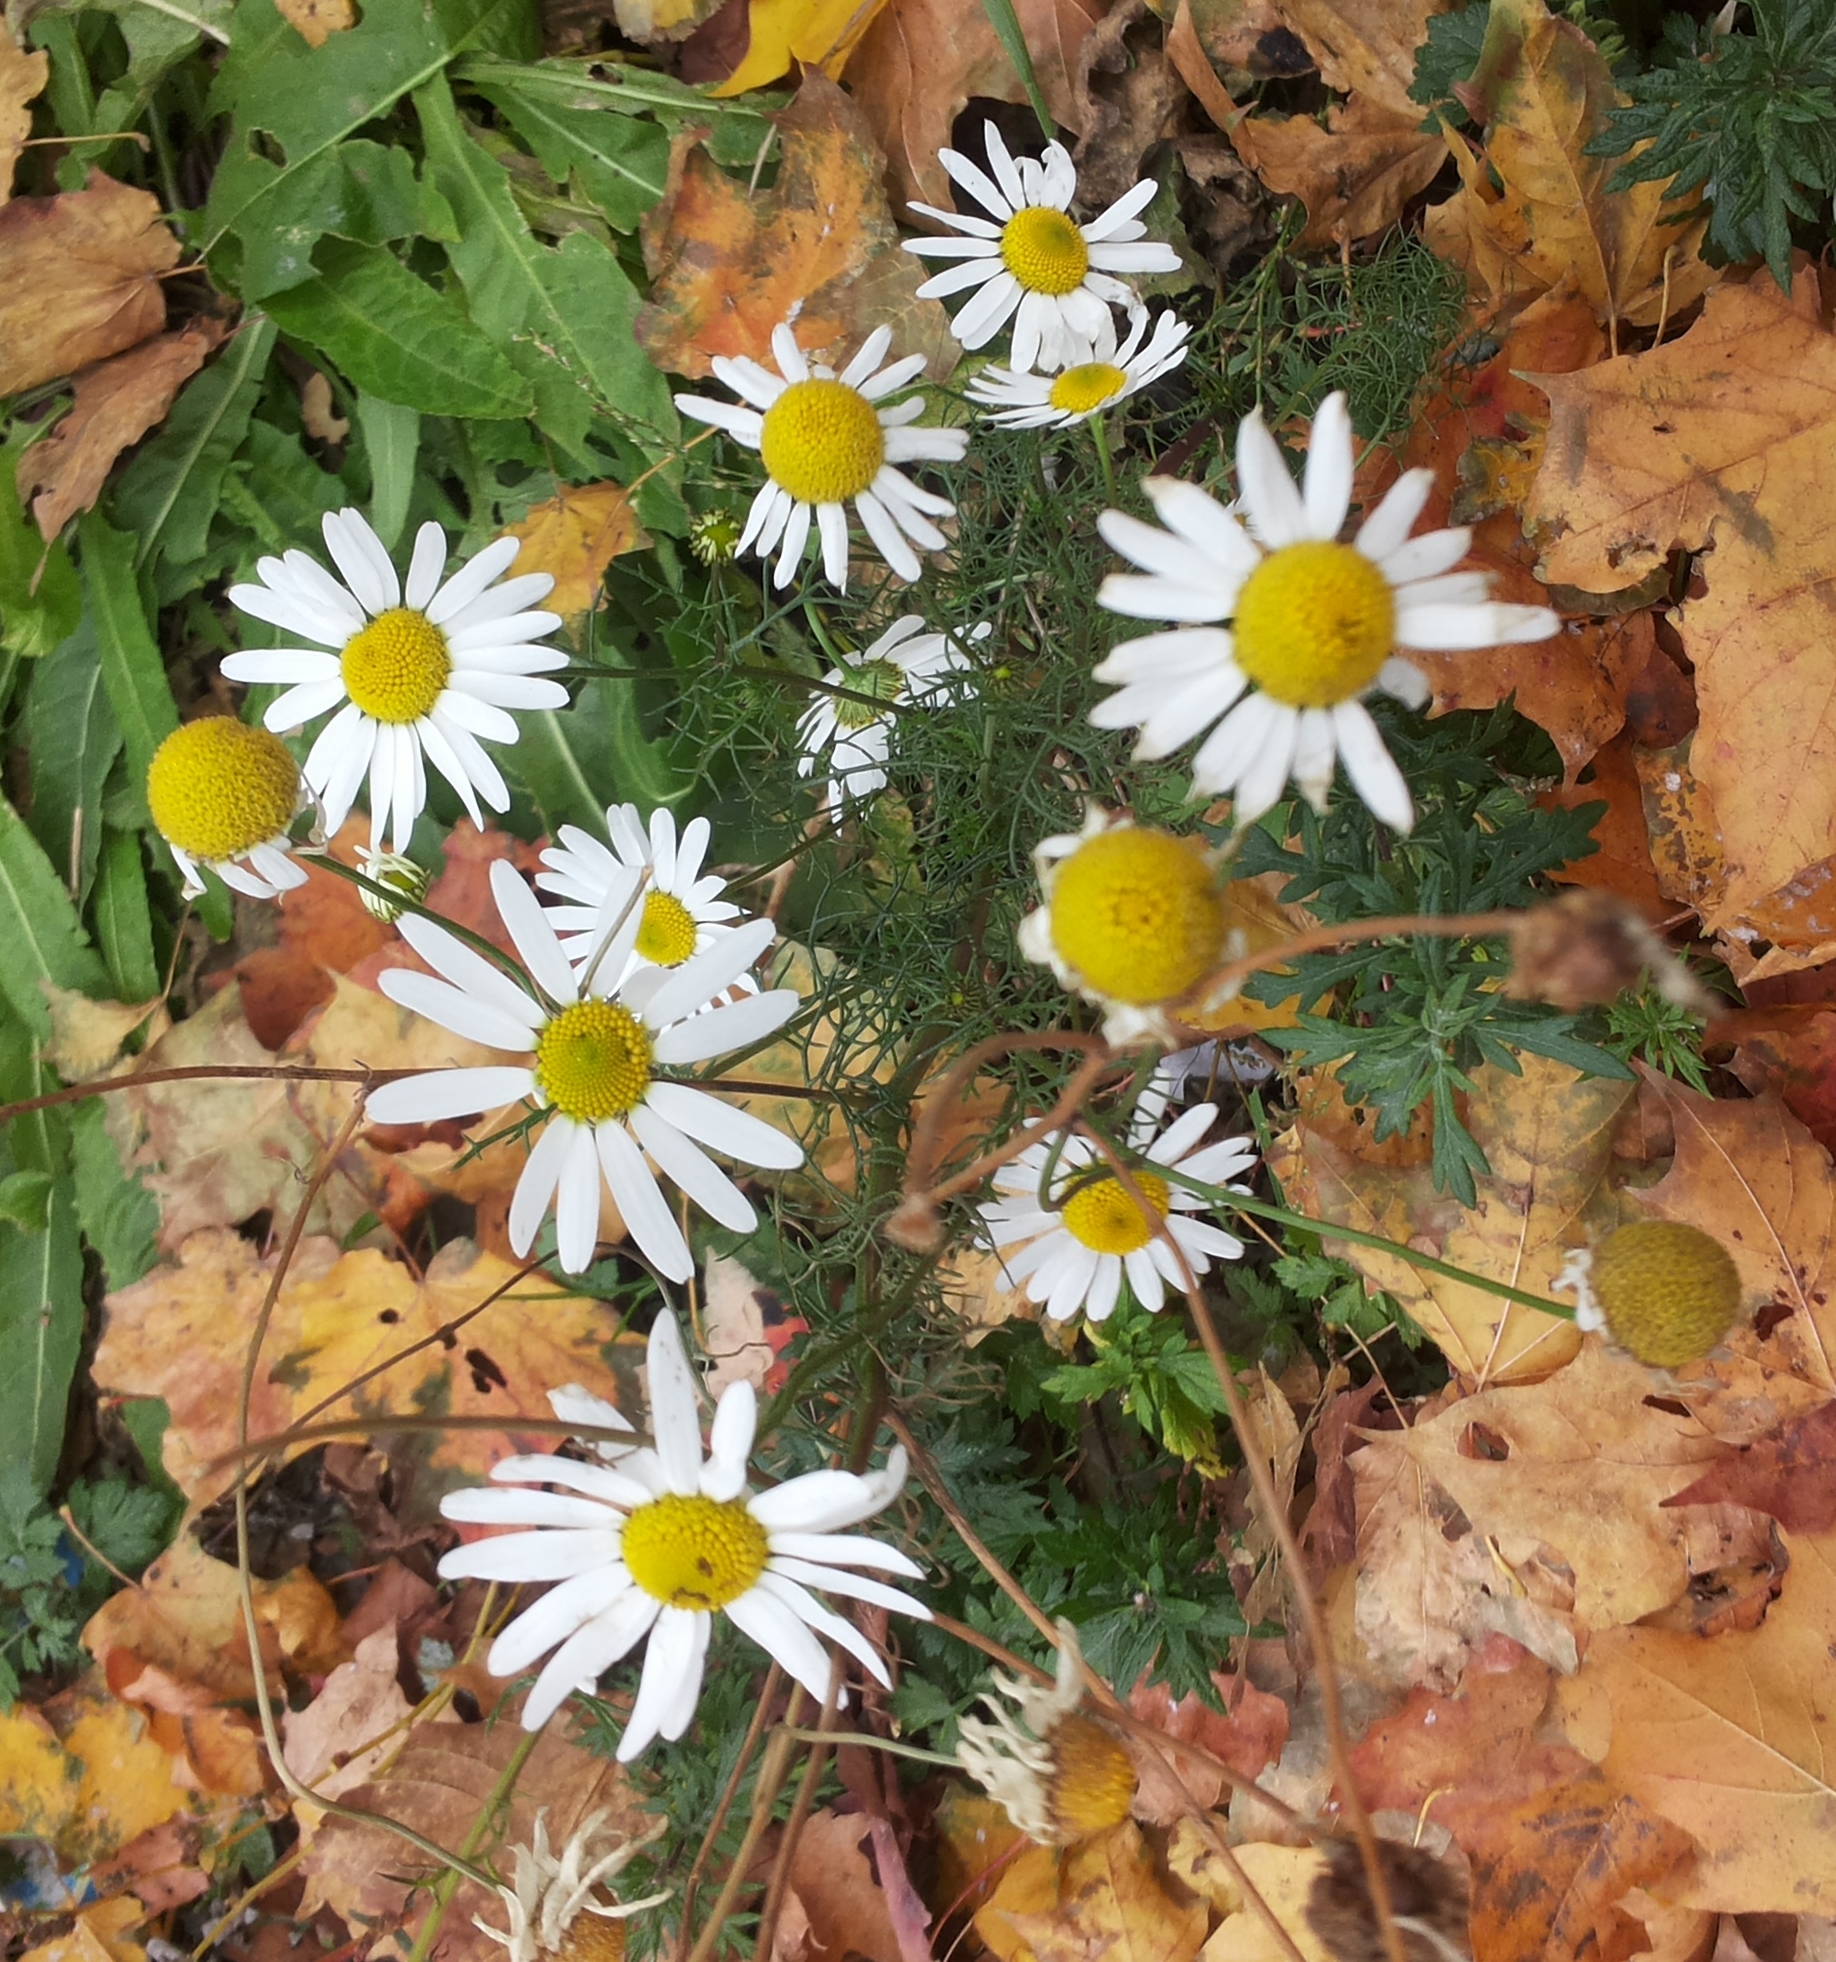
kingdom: Plantae
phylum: Tracheophyta
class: Magnoliopsida
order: Asterales
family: Asteraceae
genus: Tripleurospermum
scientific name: Tripleurospermum inodorum
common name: Scentless mayweed
